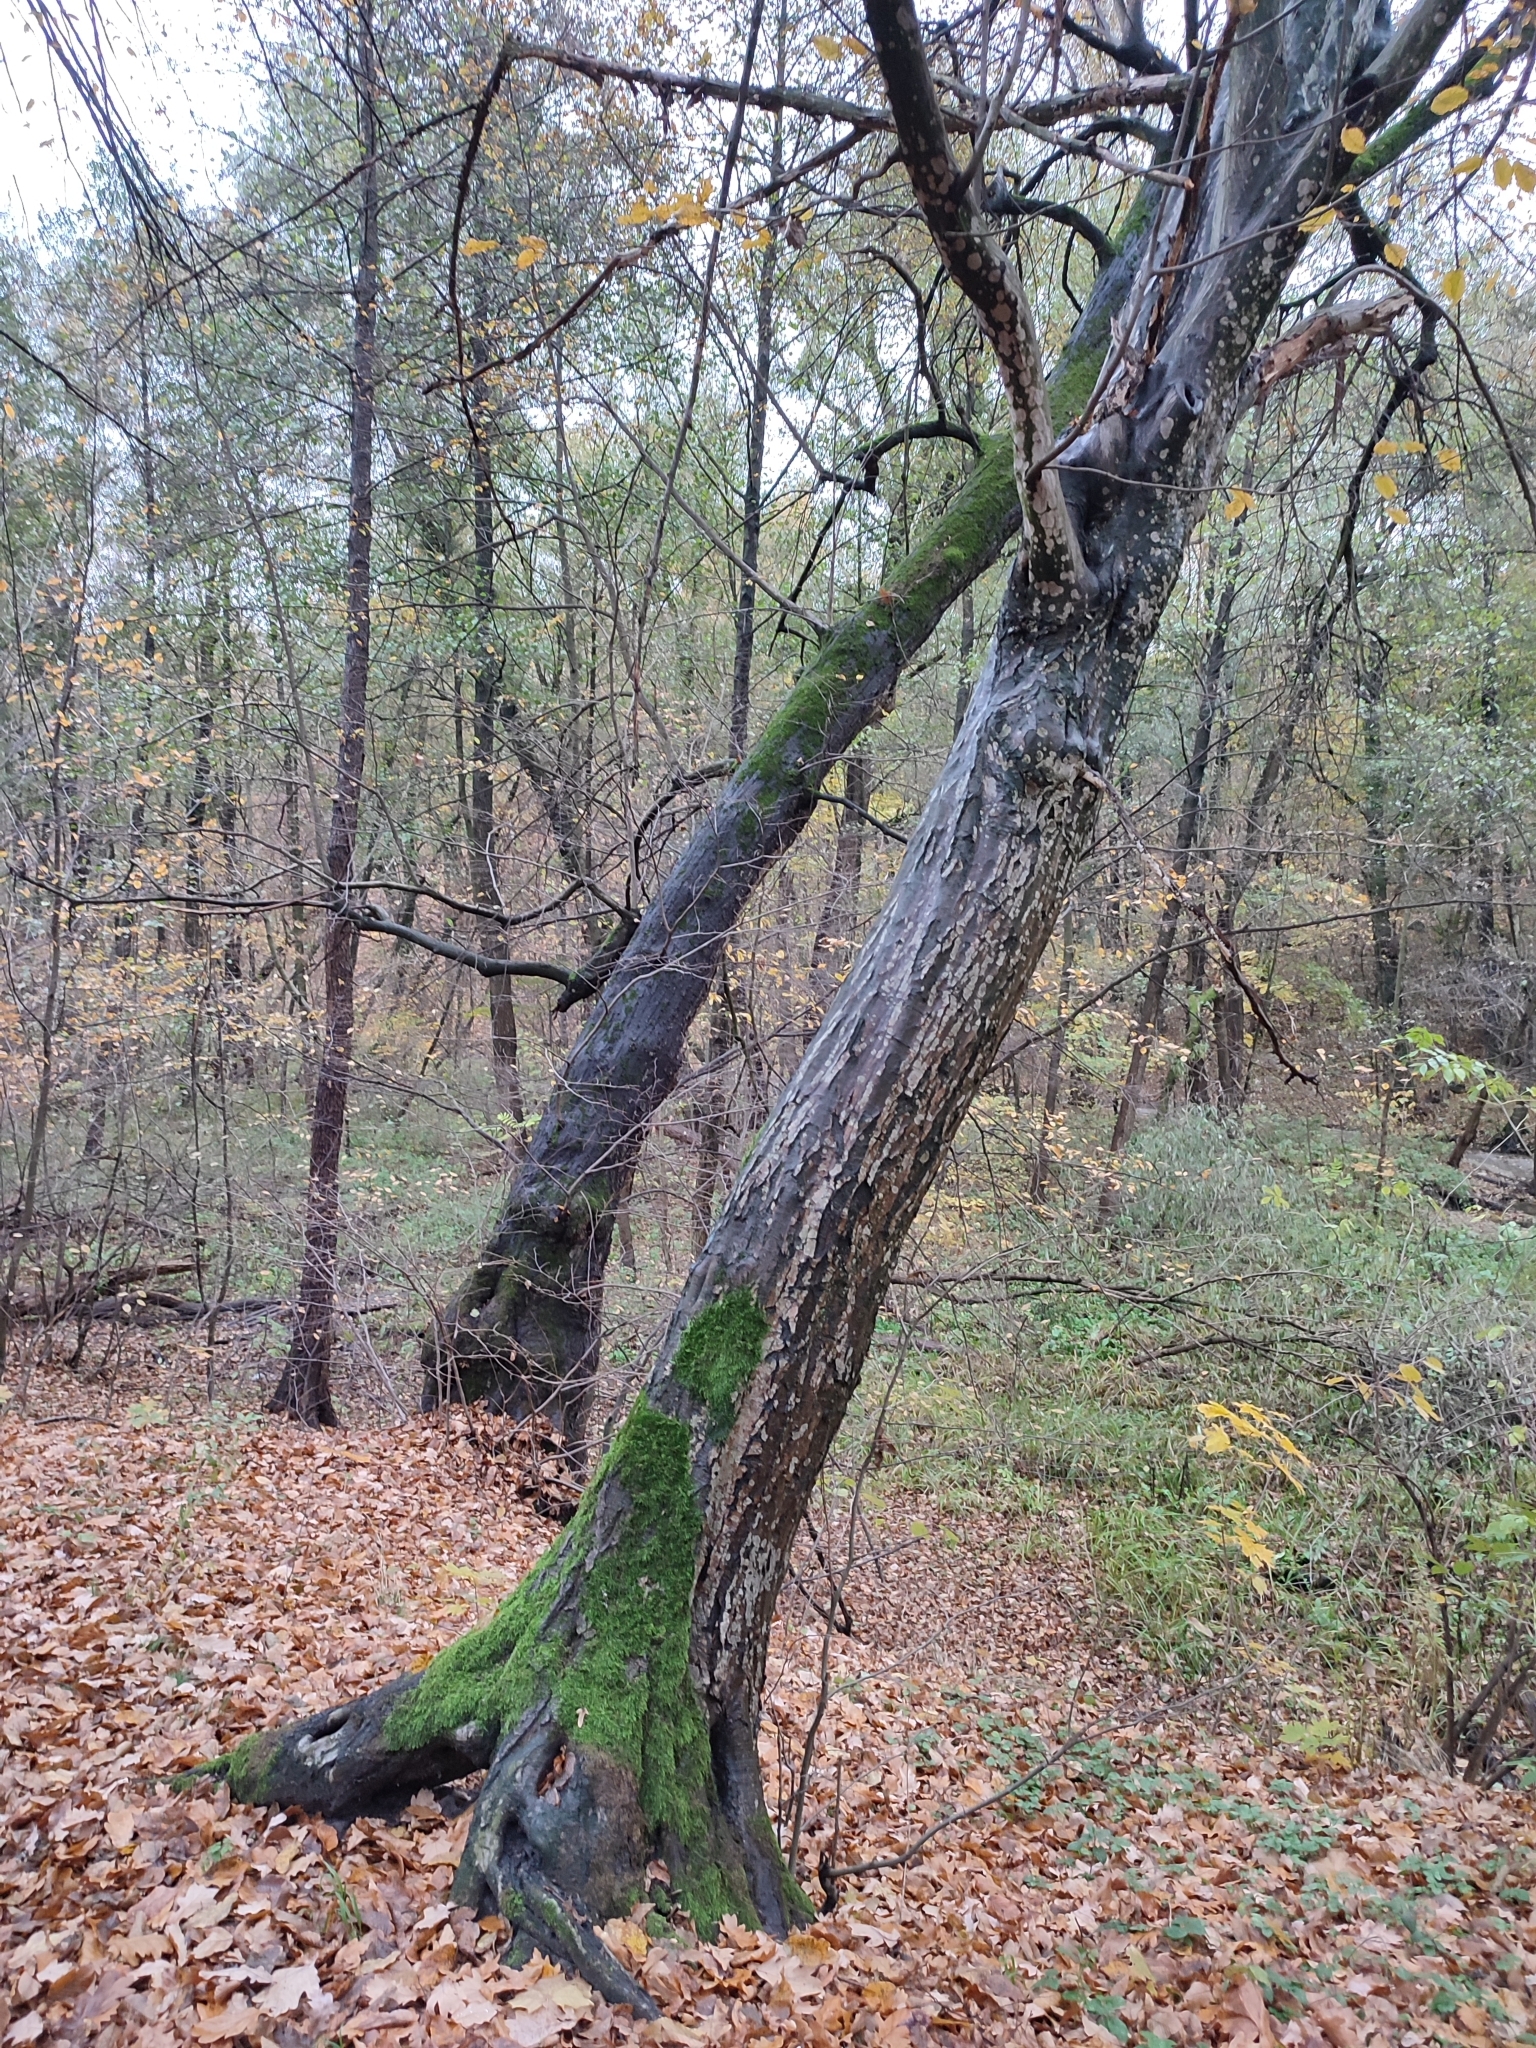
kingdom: Plantae
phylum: Tracheophyta
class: Magnoliopsida
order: Fagales
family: Betulaceae
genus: Carpinus
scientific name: Carpinus betulus
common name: Hornbeam
